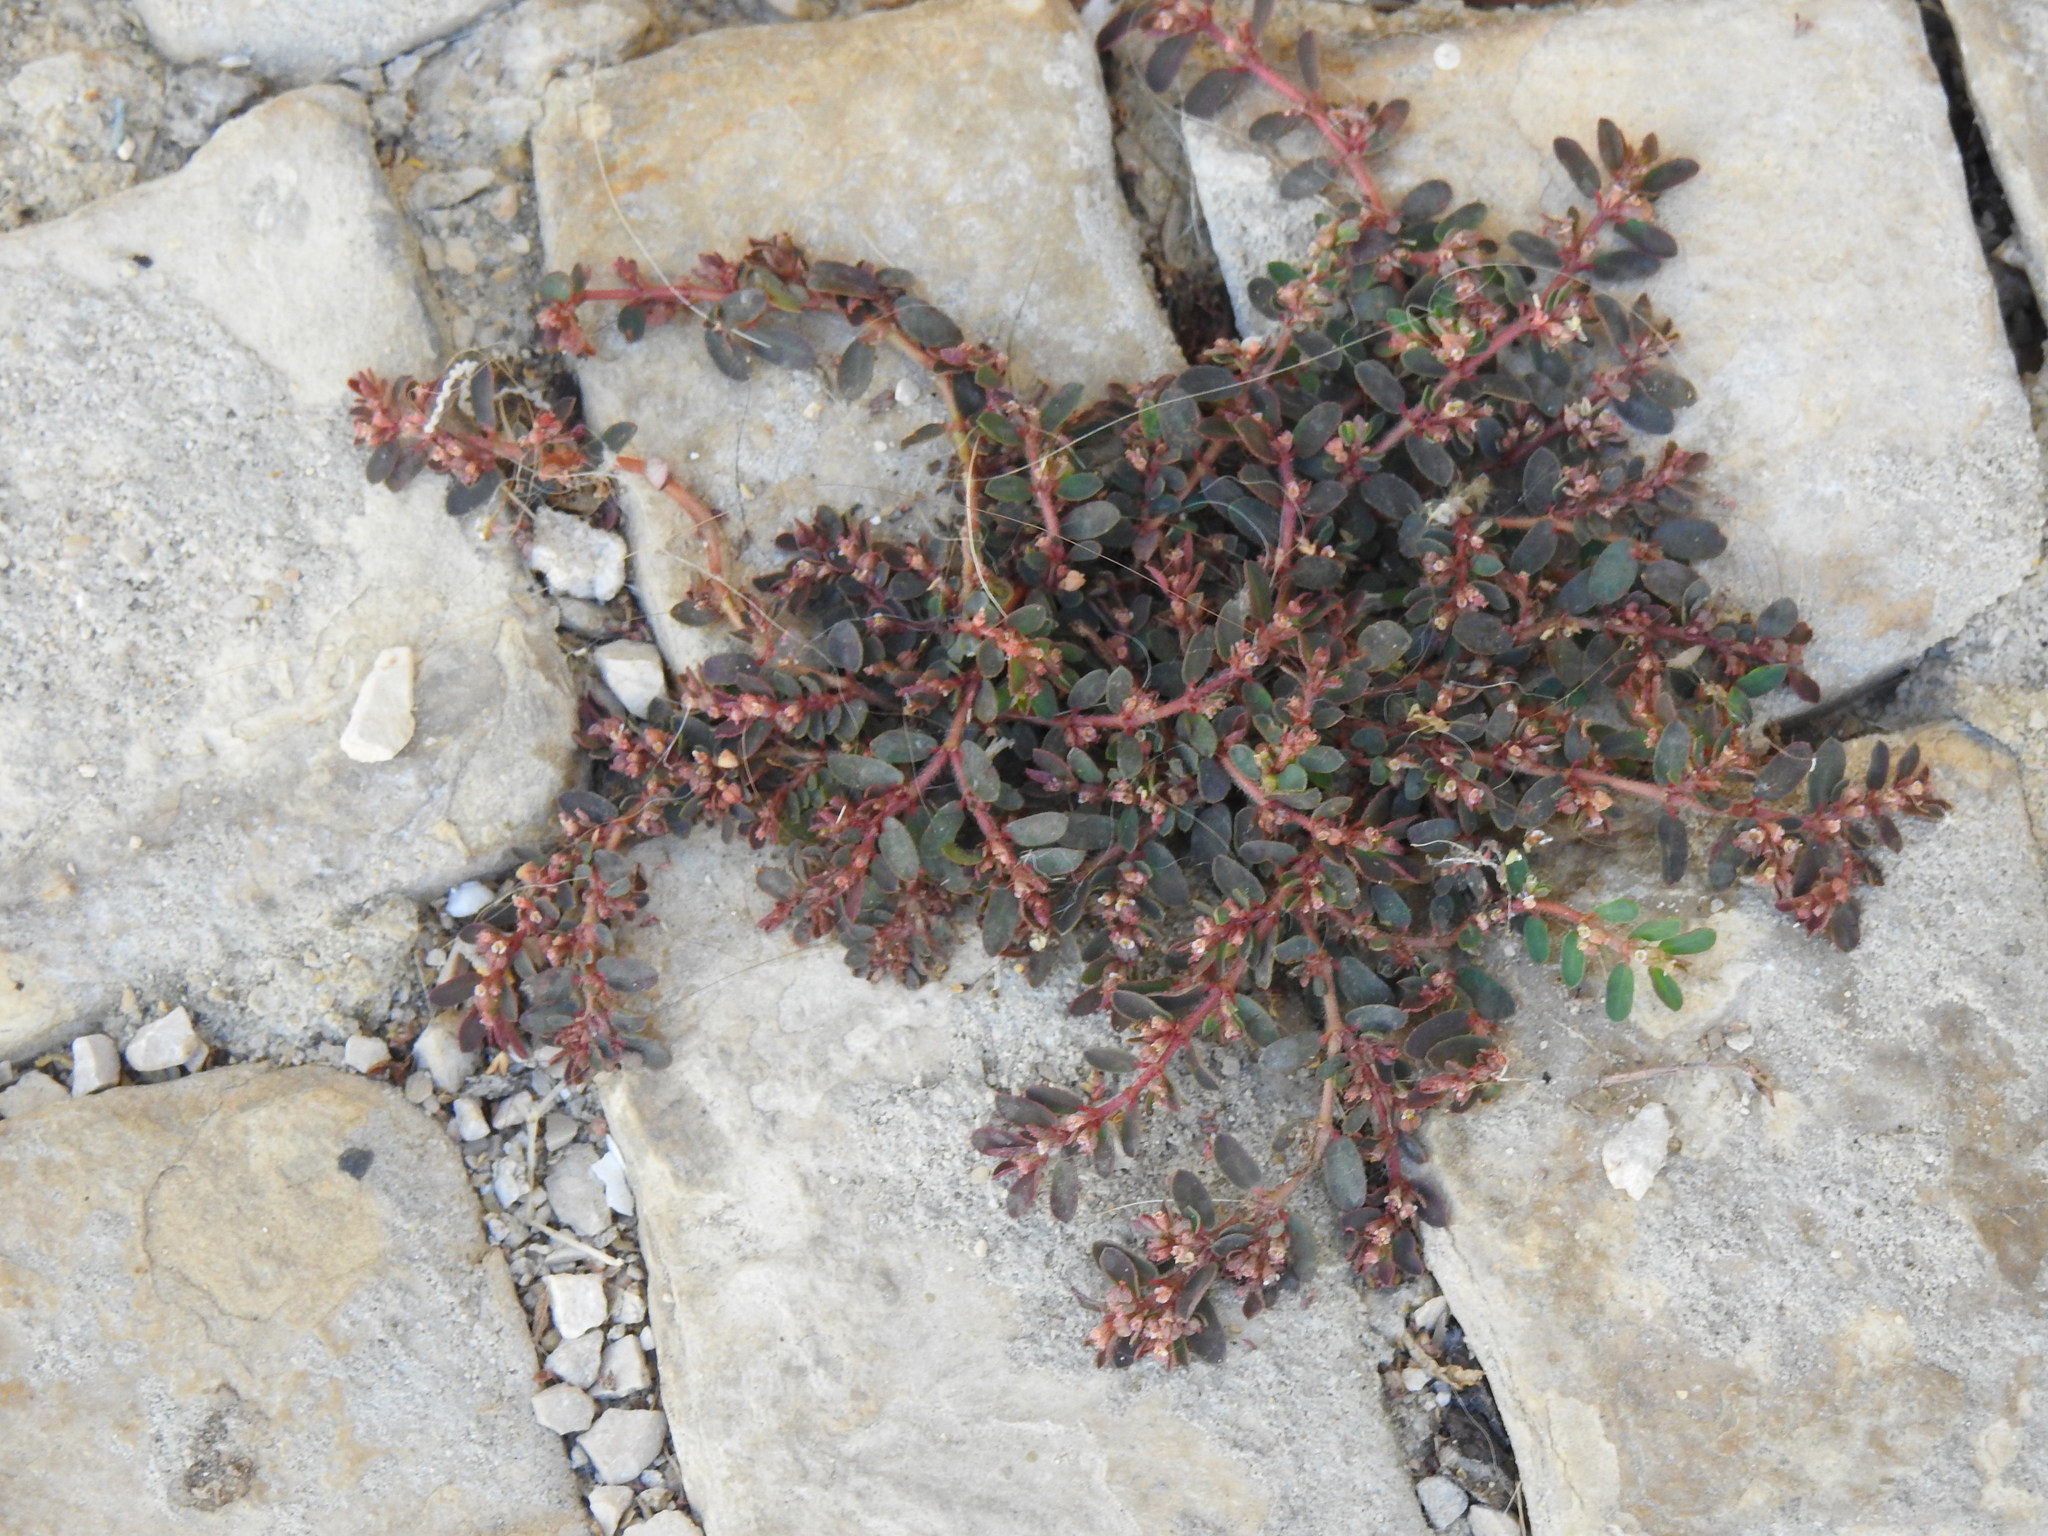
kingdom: Plantae
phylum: Tracheophyta
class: Magnoliopsida
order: Malpighiales
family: Euphorbiaceae
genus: Euphorbia
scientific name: Euphorbia maculata
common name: Spotted spurge
